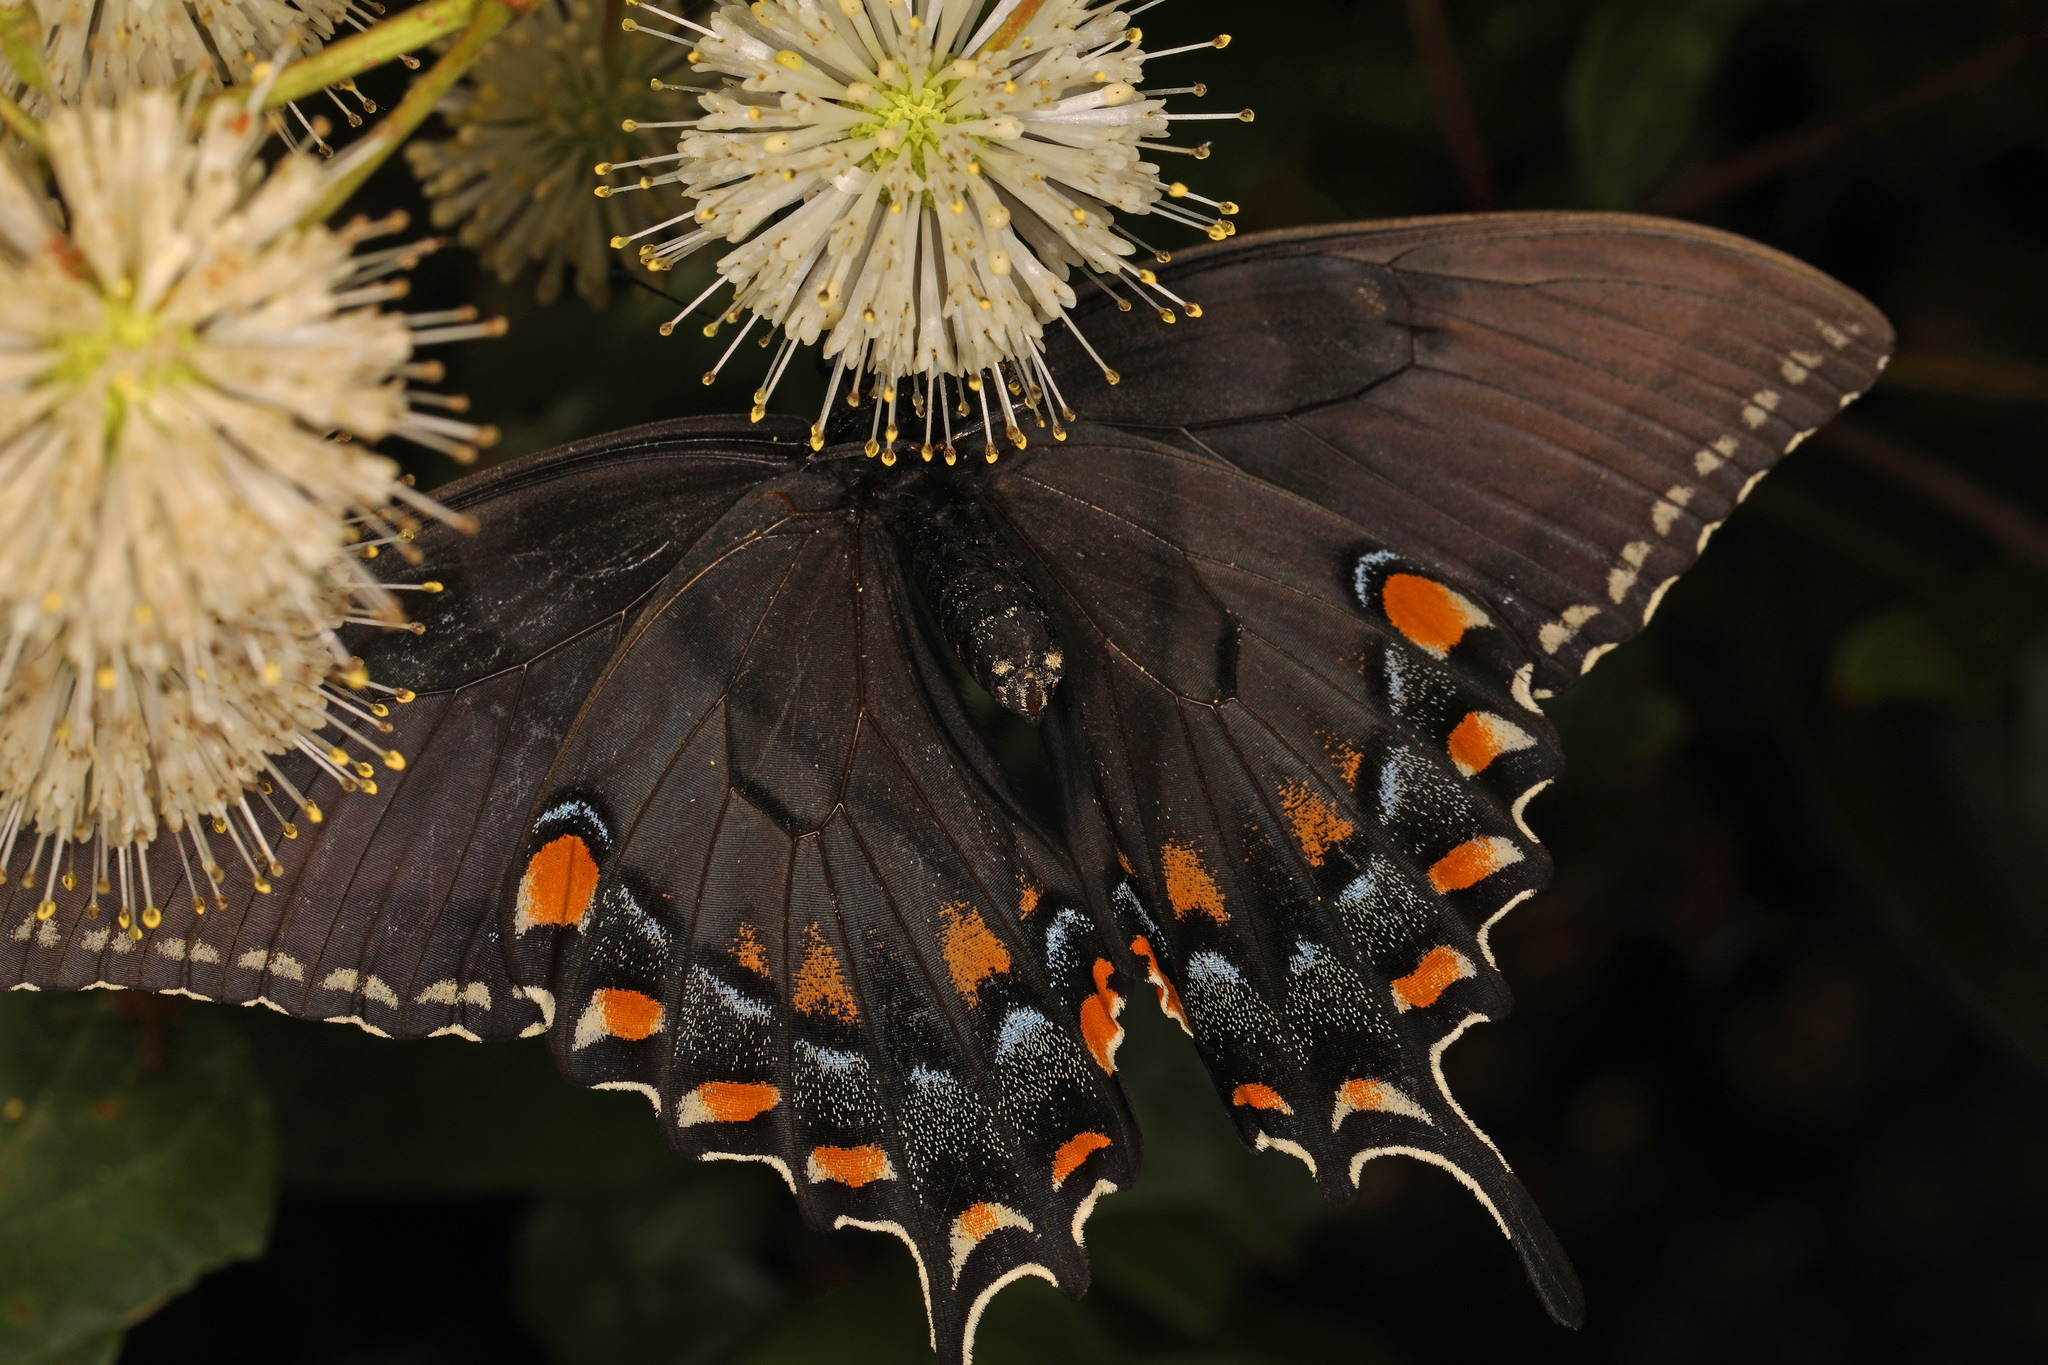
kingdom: Animalia
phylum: Arthropoda
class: Insecta
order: Lepidoptera
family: Papilionidae
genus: Papilio
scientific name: Papilio glaucus
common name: Tiger swallowtail
